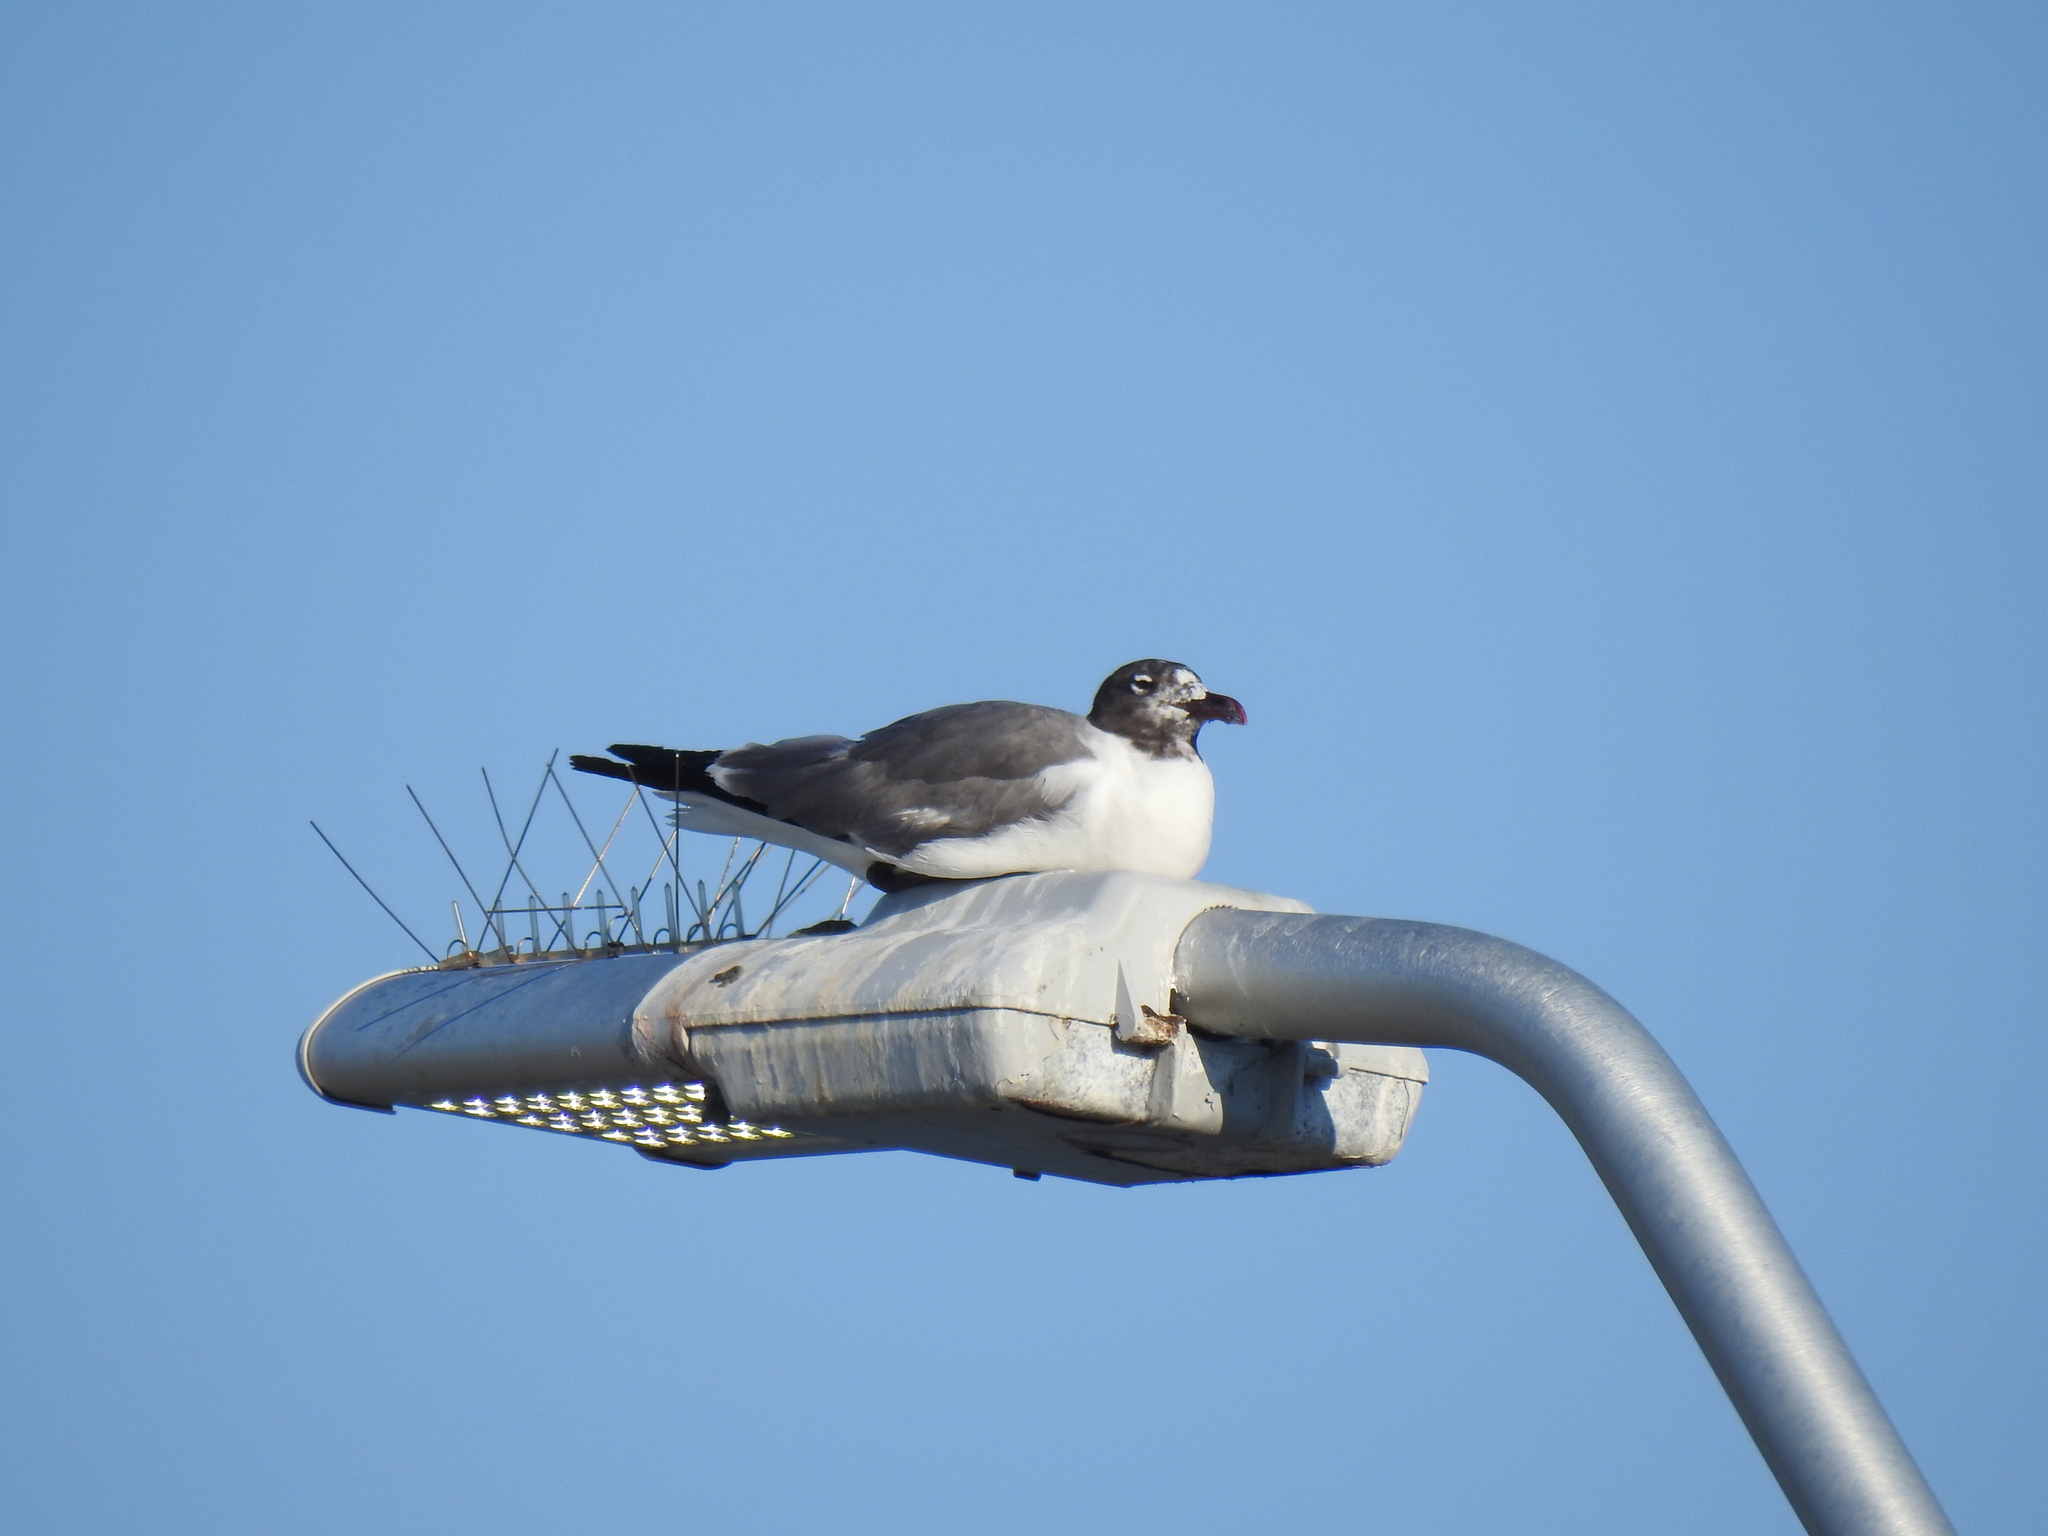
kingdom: Animalia
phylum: Chordata
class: Aves
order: Charadriiformes
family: Laridae
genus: Leucophaeus
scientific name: Leucophaeus atricilla
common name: Laughing gull
